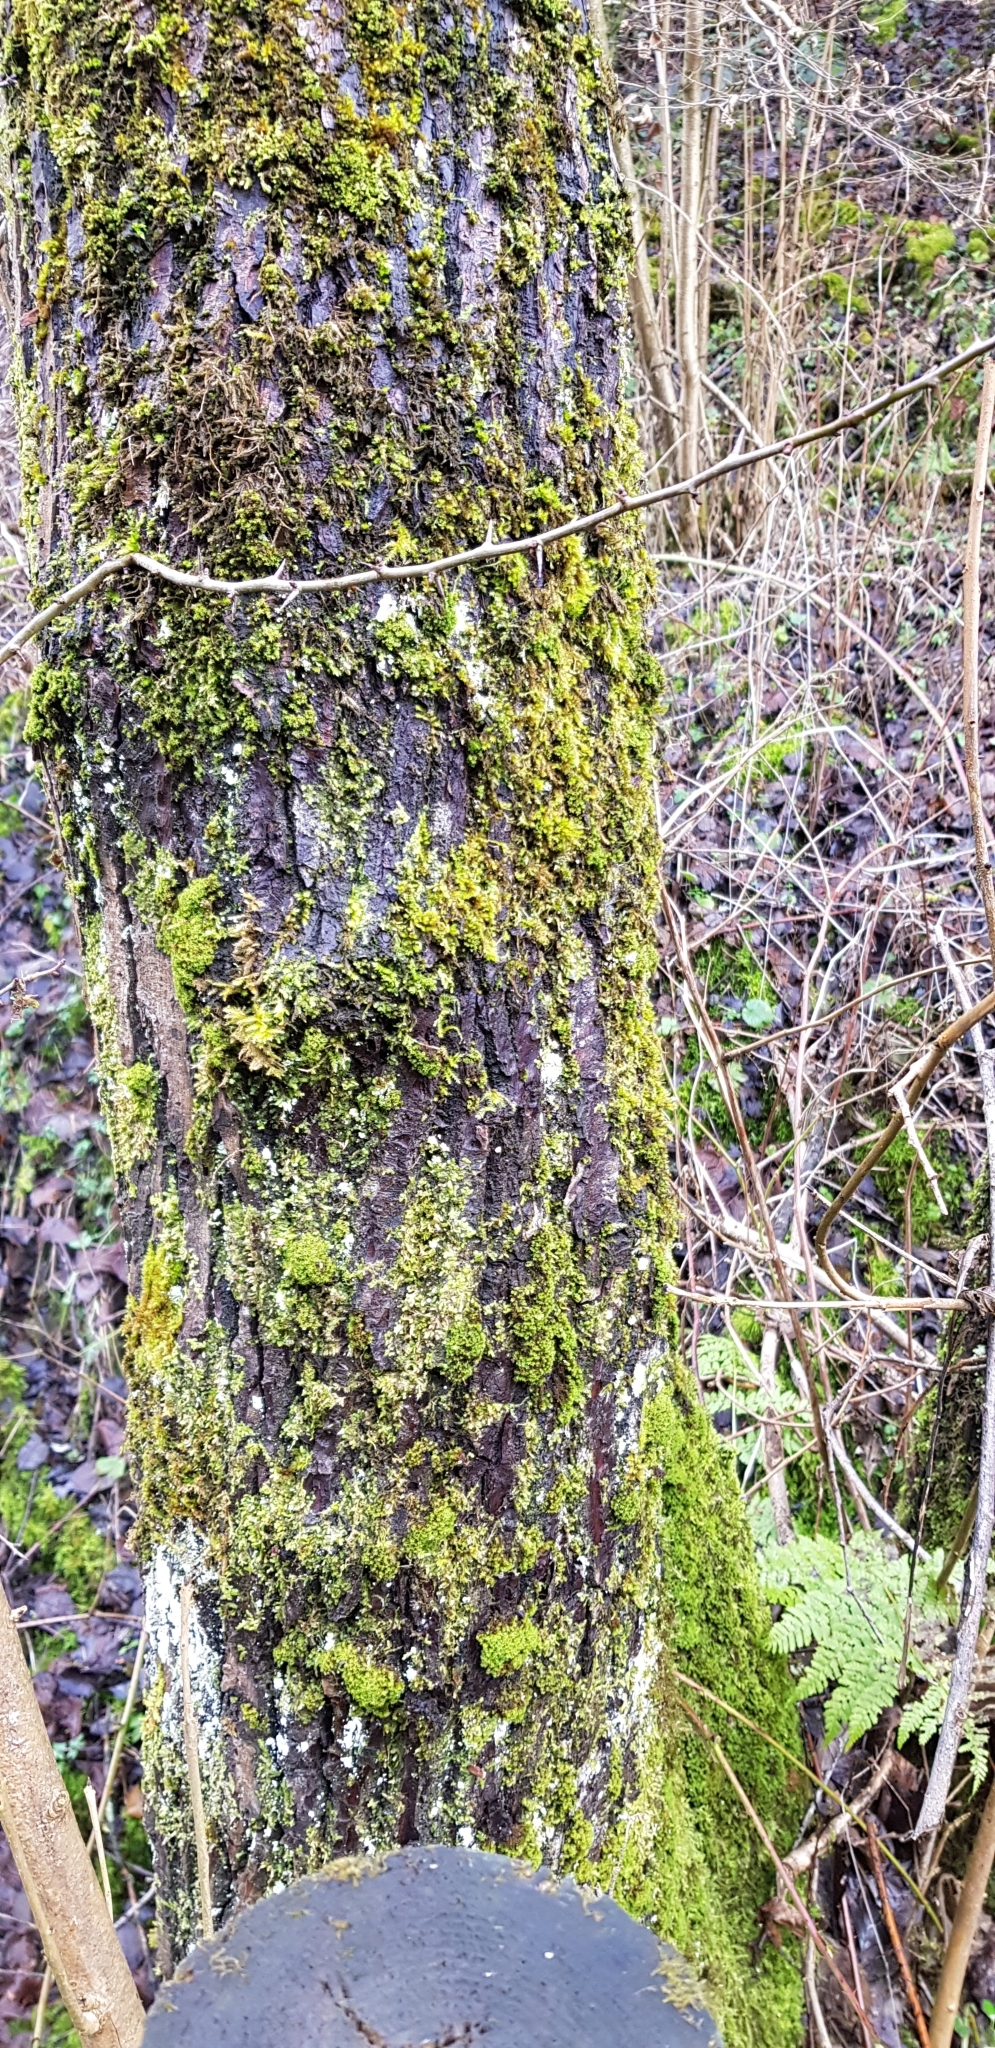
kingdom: Plantae
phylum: Marchantiophyta
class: Jungermanniopsida
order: Porellales
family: Radulaceae
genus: Radula
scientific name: Radula complanata
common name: Flat-leaved scalewort
